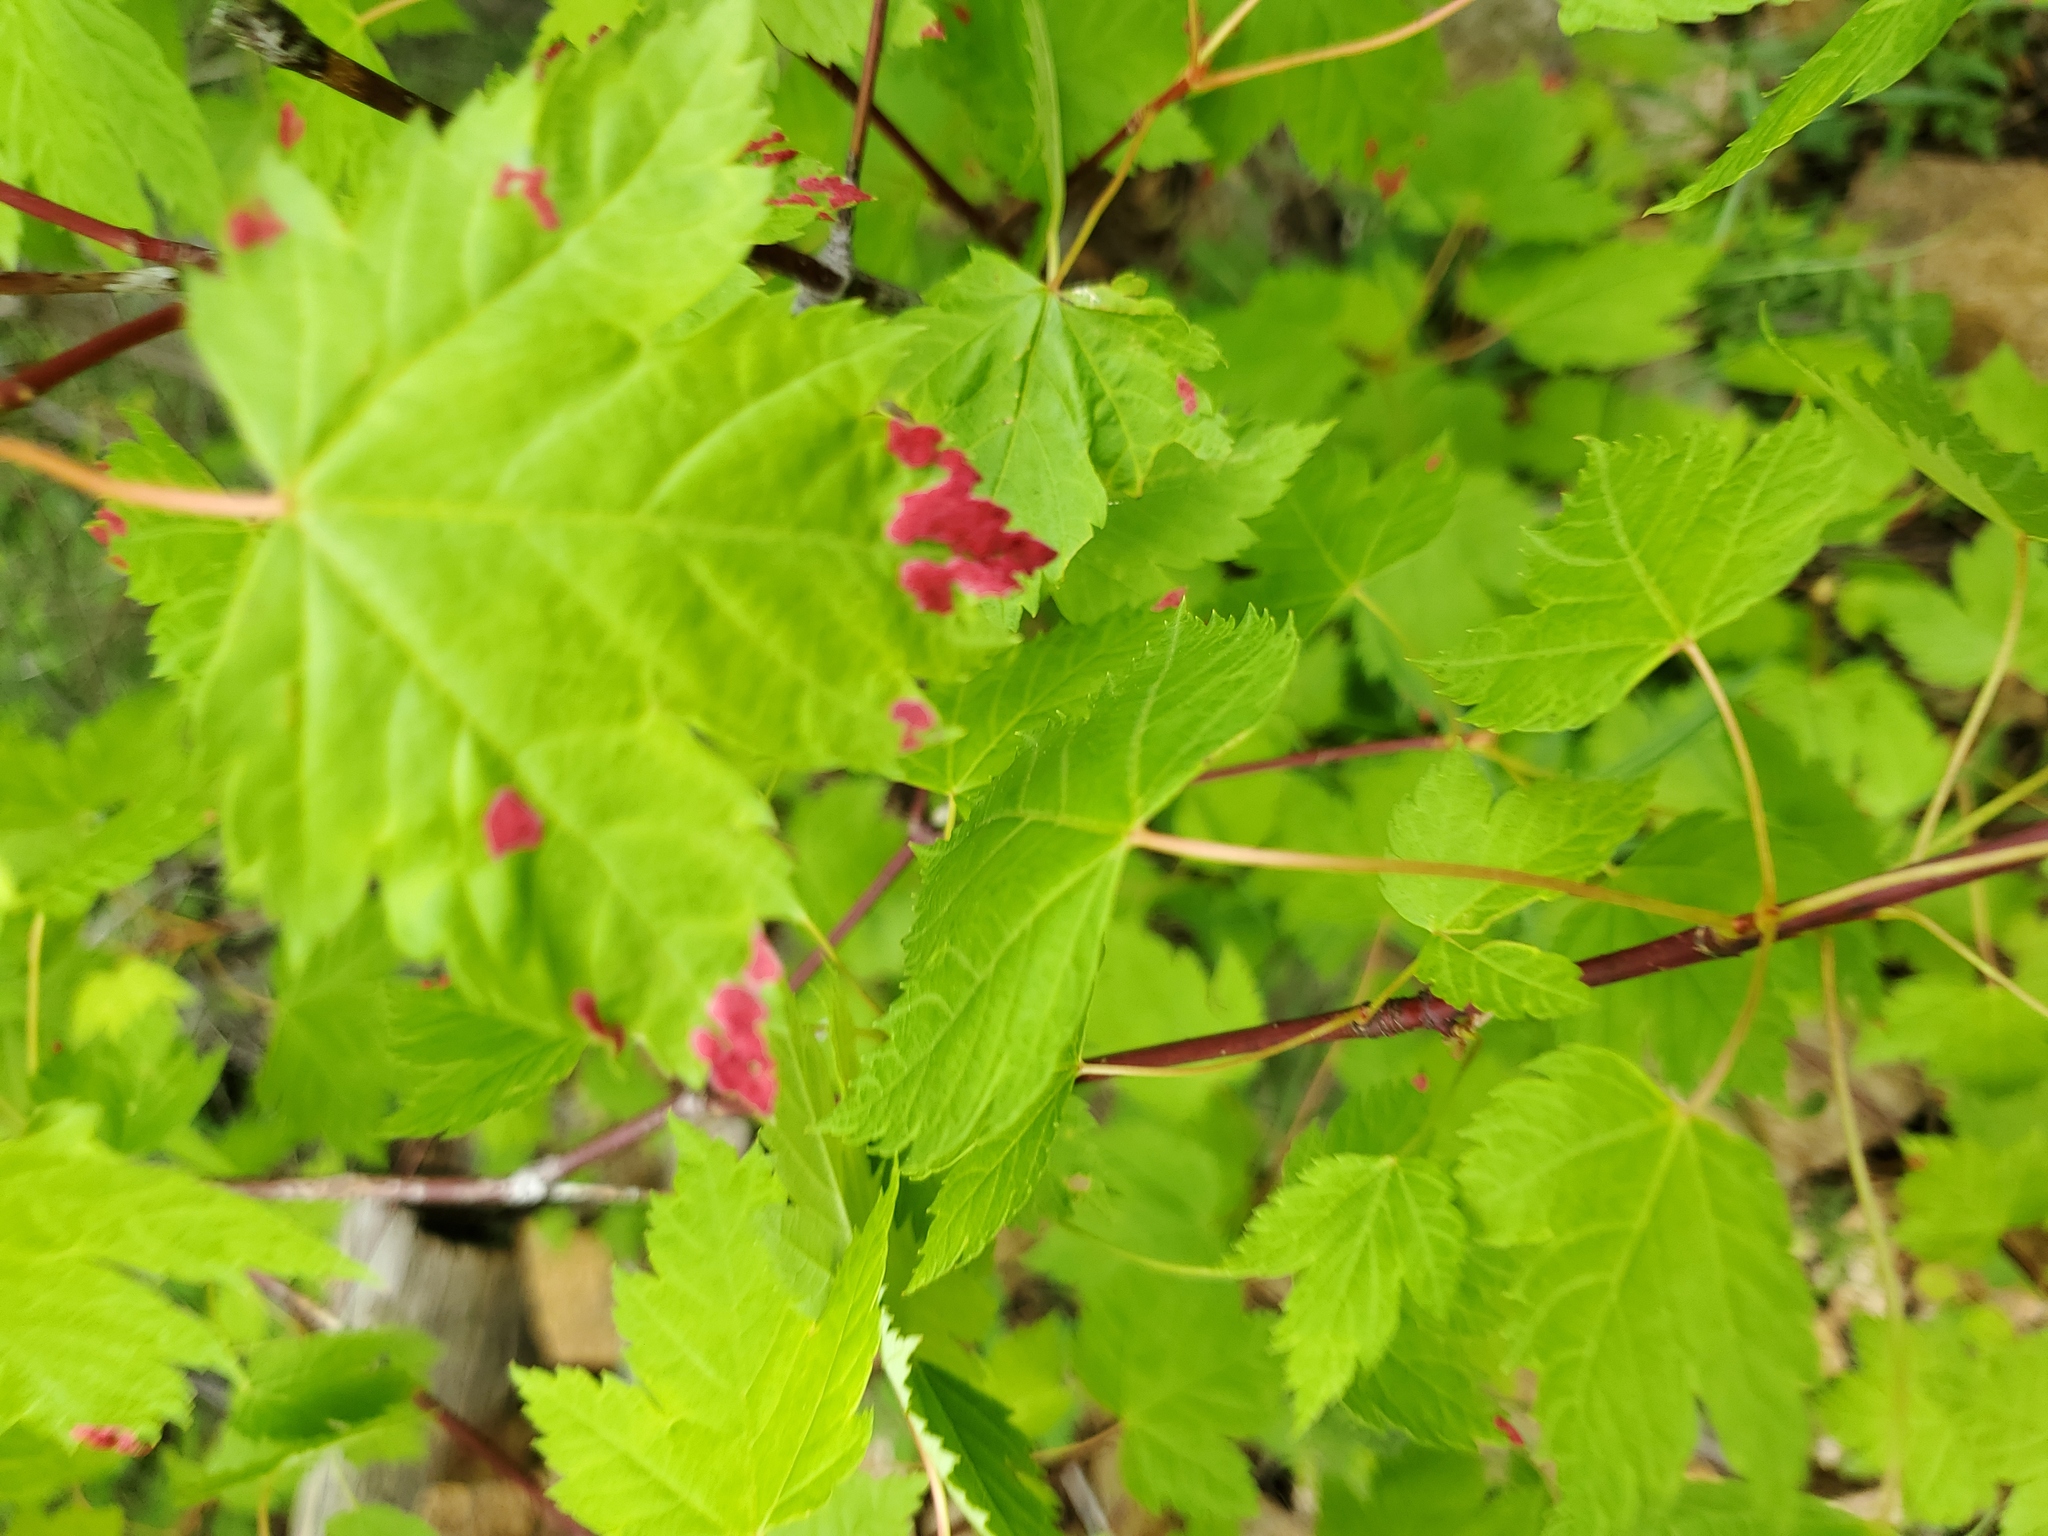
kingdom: Animalia
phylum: Arthropoda
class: Arachnida
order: Trombidiformes
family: Eriophyidae
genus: Aceria
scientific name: Aceria
